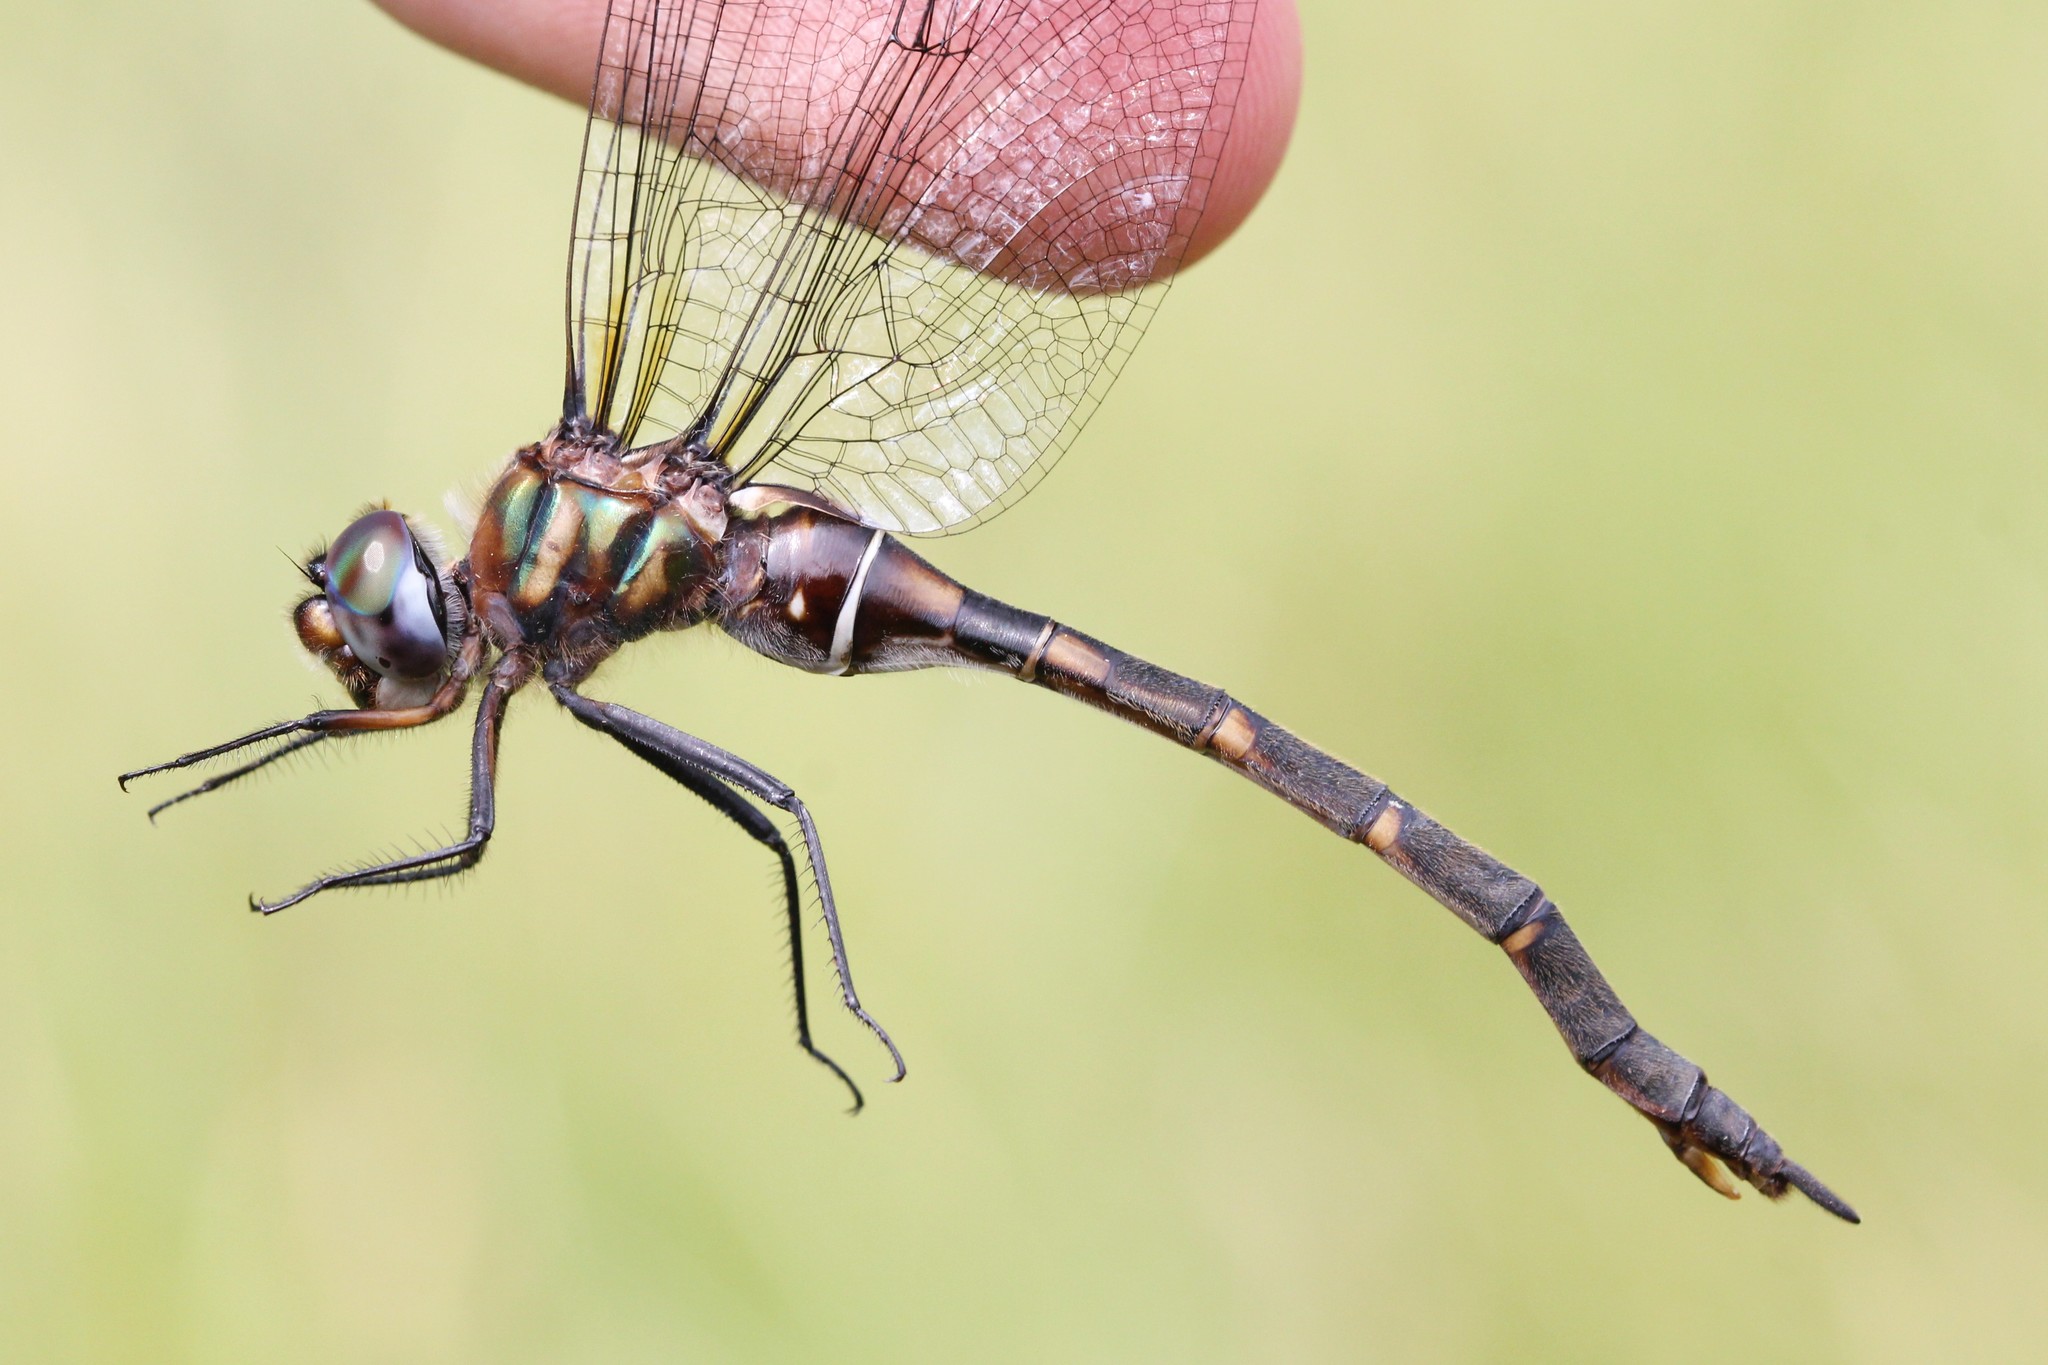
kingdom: Animalia
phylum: Arthropoda
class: Insecta
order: Odonata
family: Corduliidae
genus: Somatochlora
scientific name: Somatochlora incurvata
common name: Incurvate emerald
